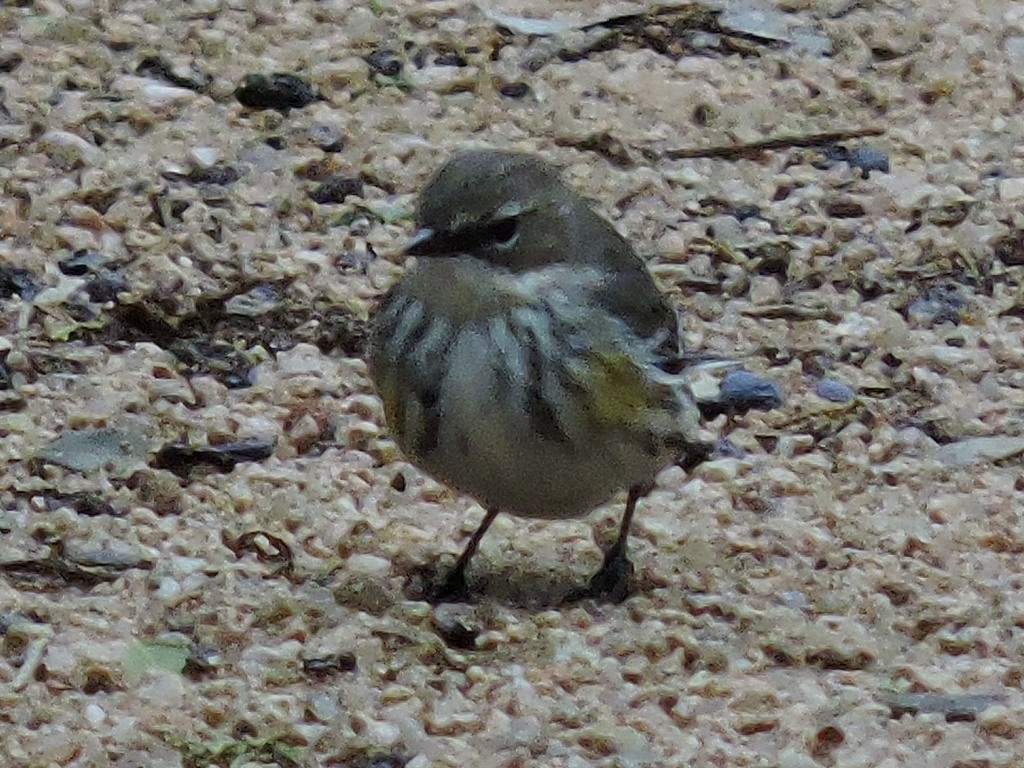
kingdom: Animalia
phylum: Chordata
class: Aves
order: Passeriformes
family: Parulidae
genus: Setophaga
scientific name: Setophaga coronata
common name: Myrtle warbler
